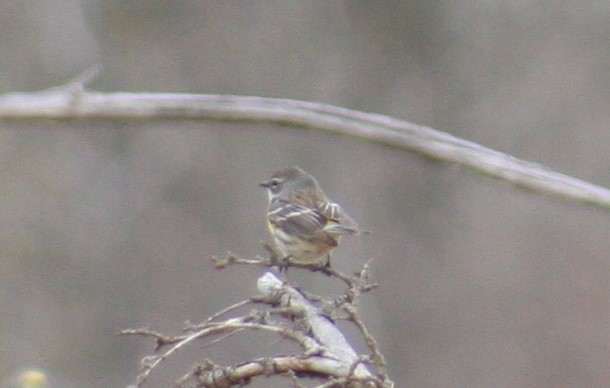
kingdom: Animalia
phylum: Chordata
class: Aves
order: Passeriformes
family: Parulidae
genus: Setophaga
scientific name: Setophaga coronata
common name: Myrtle warbler
